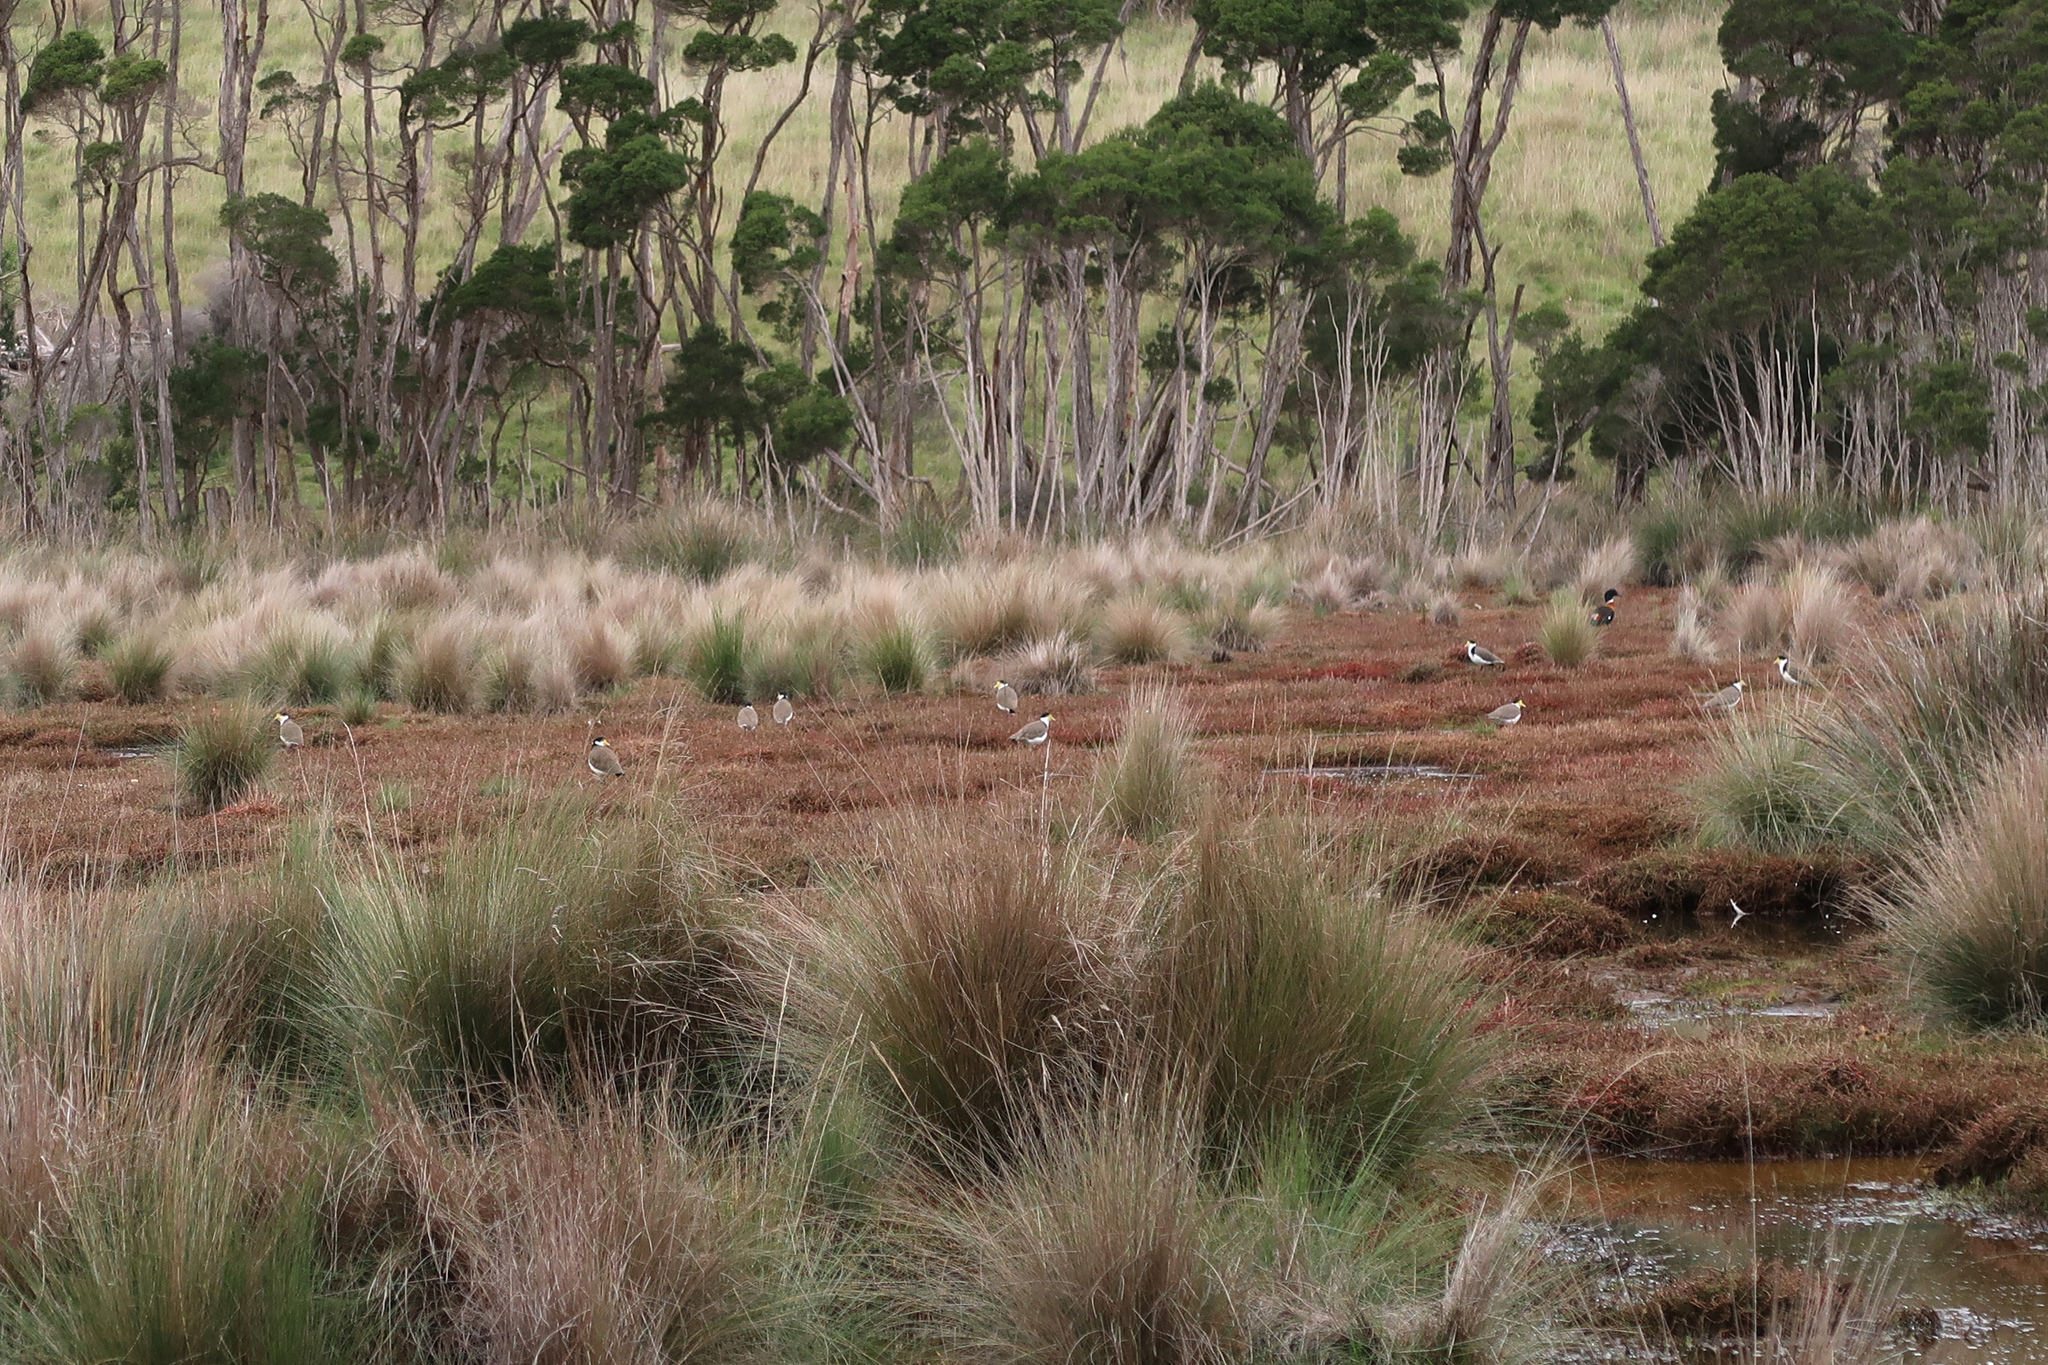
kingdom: Animalia
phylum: Chordata
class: Aves
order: Charadriiformes
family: Charadriidae
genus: Vanellus
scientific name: Vanellus miles
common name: Masked lapwing
